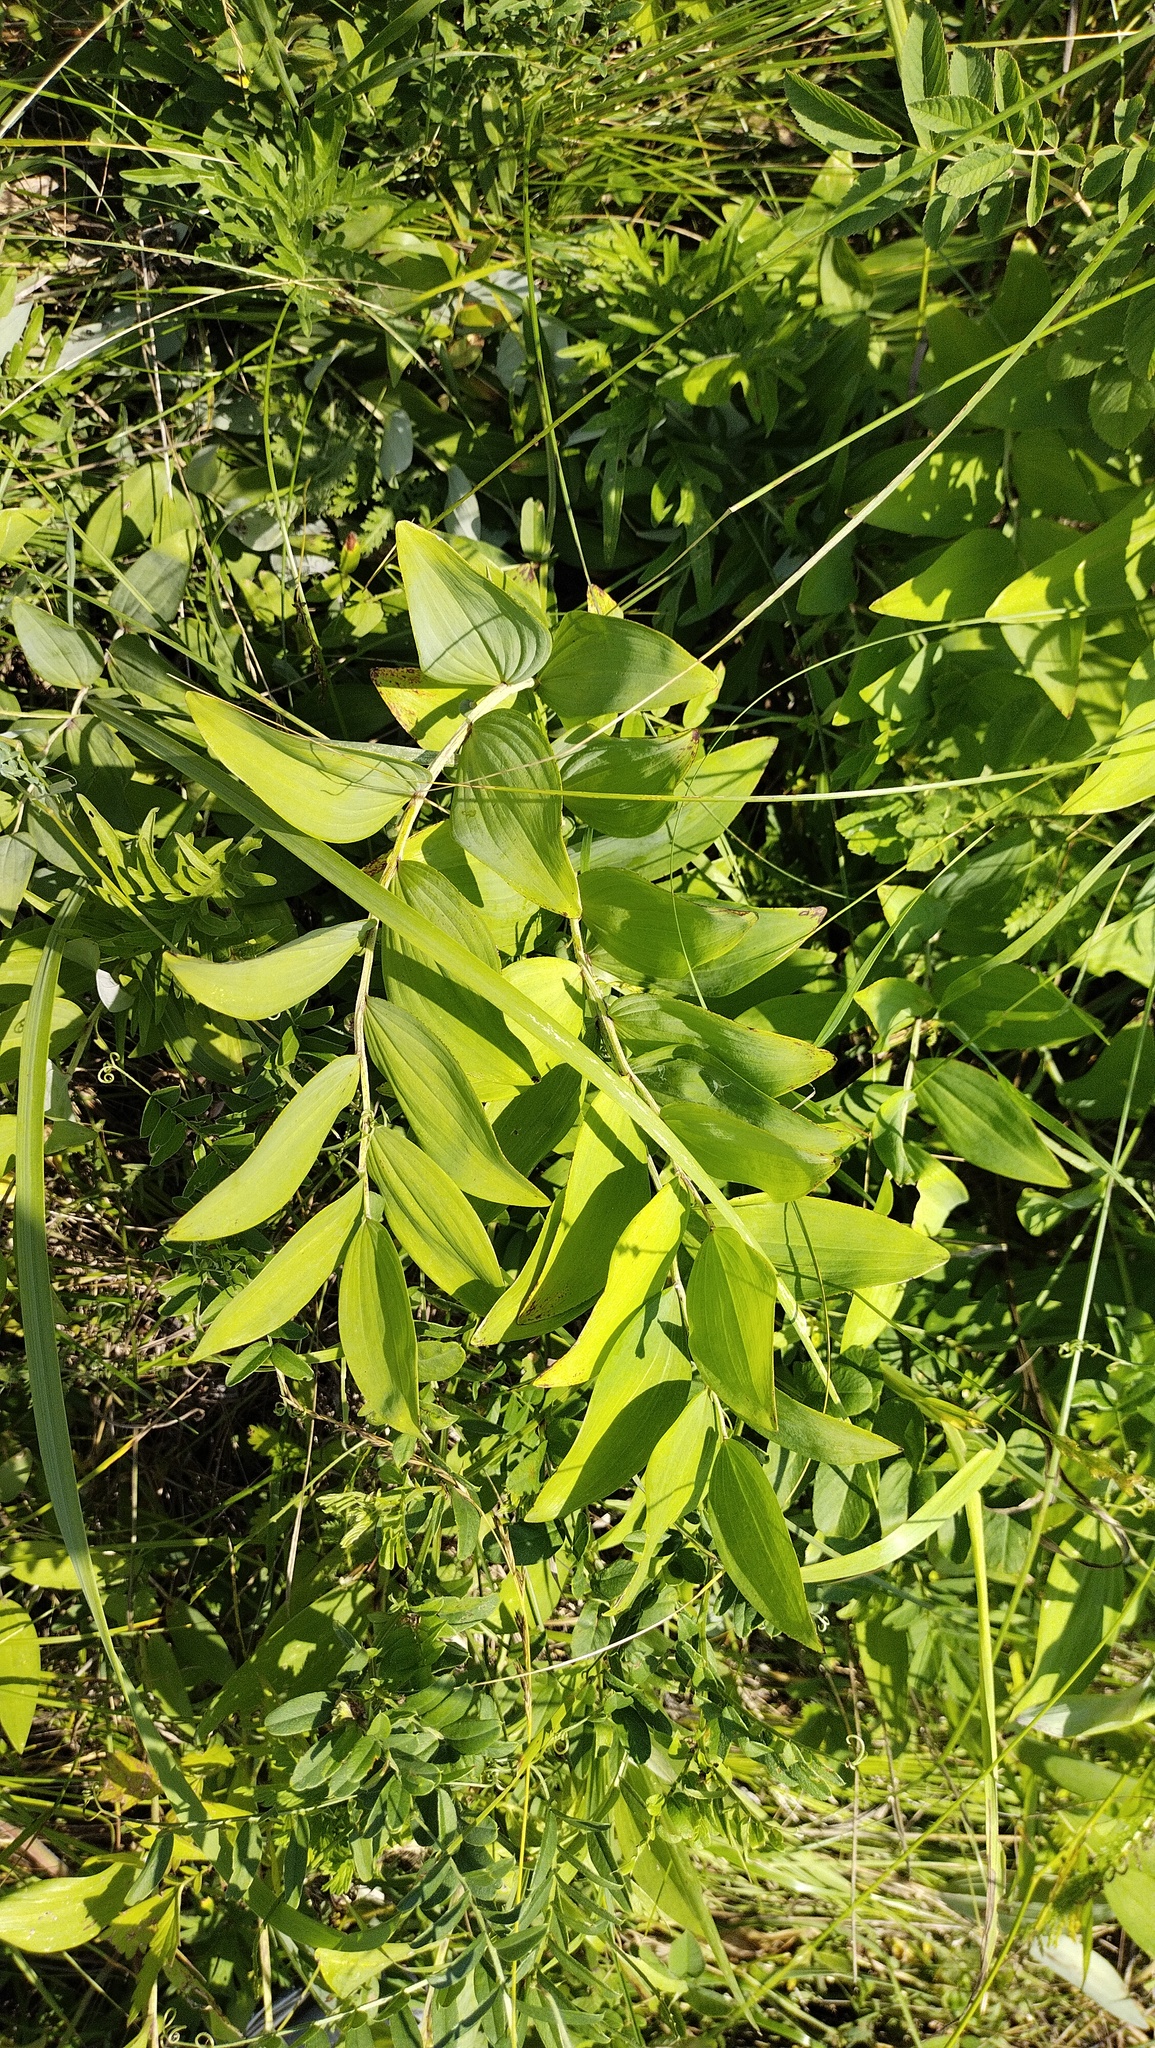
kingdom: Plantae
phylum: Tracheophyta
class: Liliopsida
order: Asparagales
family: Asparagaceae
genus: Polygonatum
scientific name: Polygonatum odoratum
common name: Angular solomon's-seal
